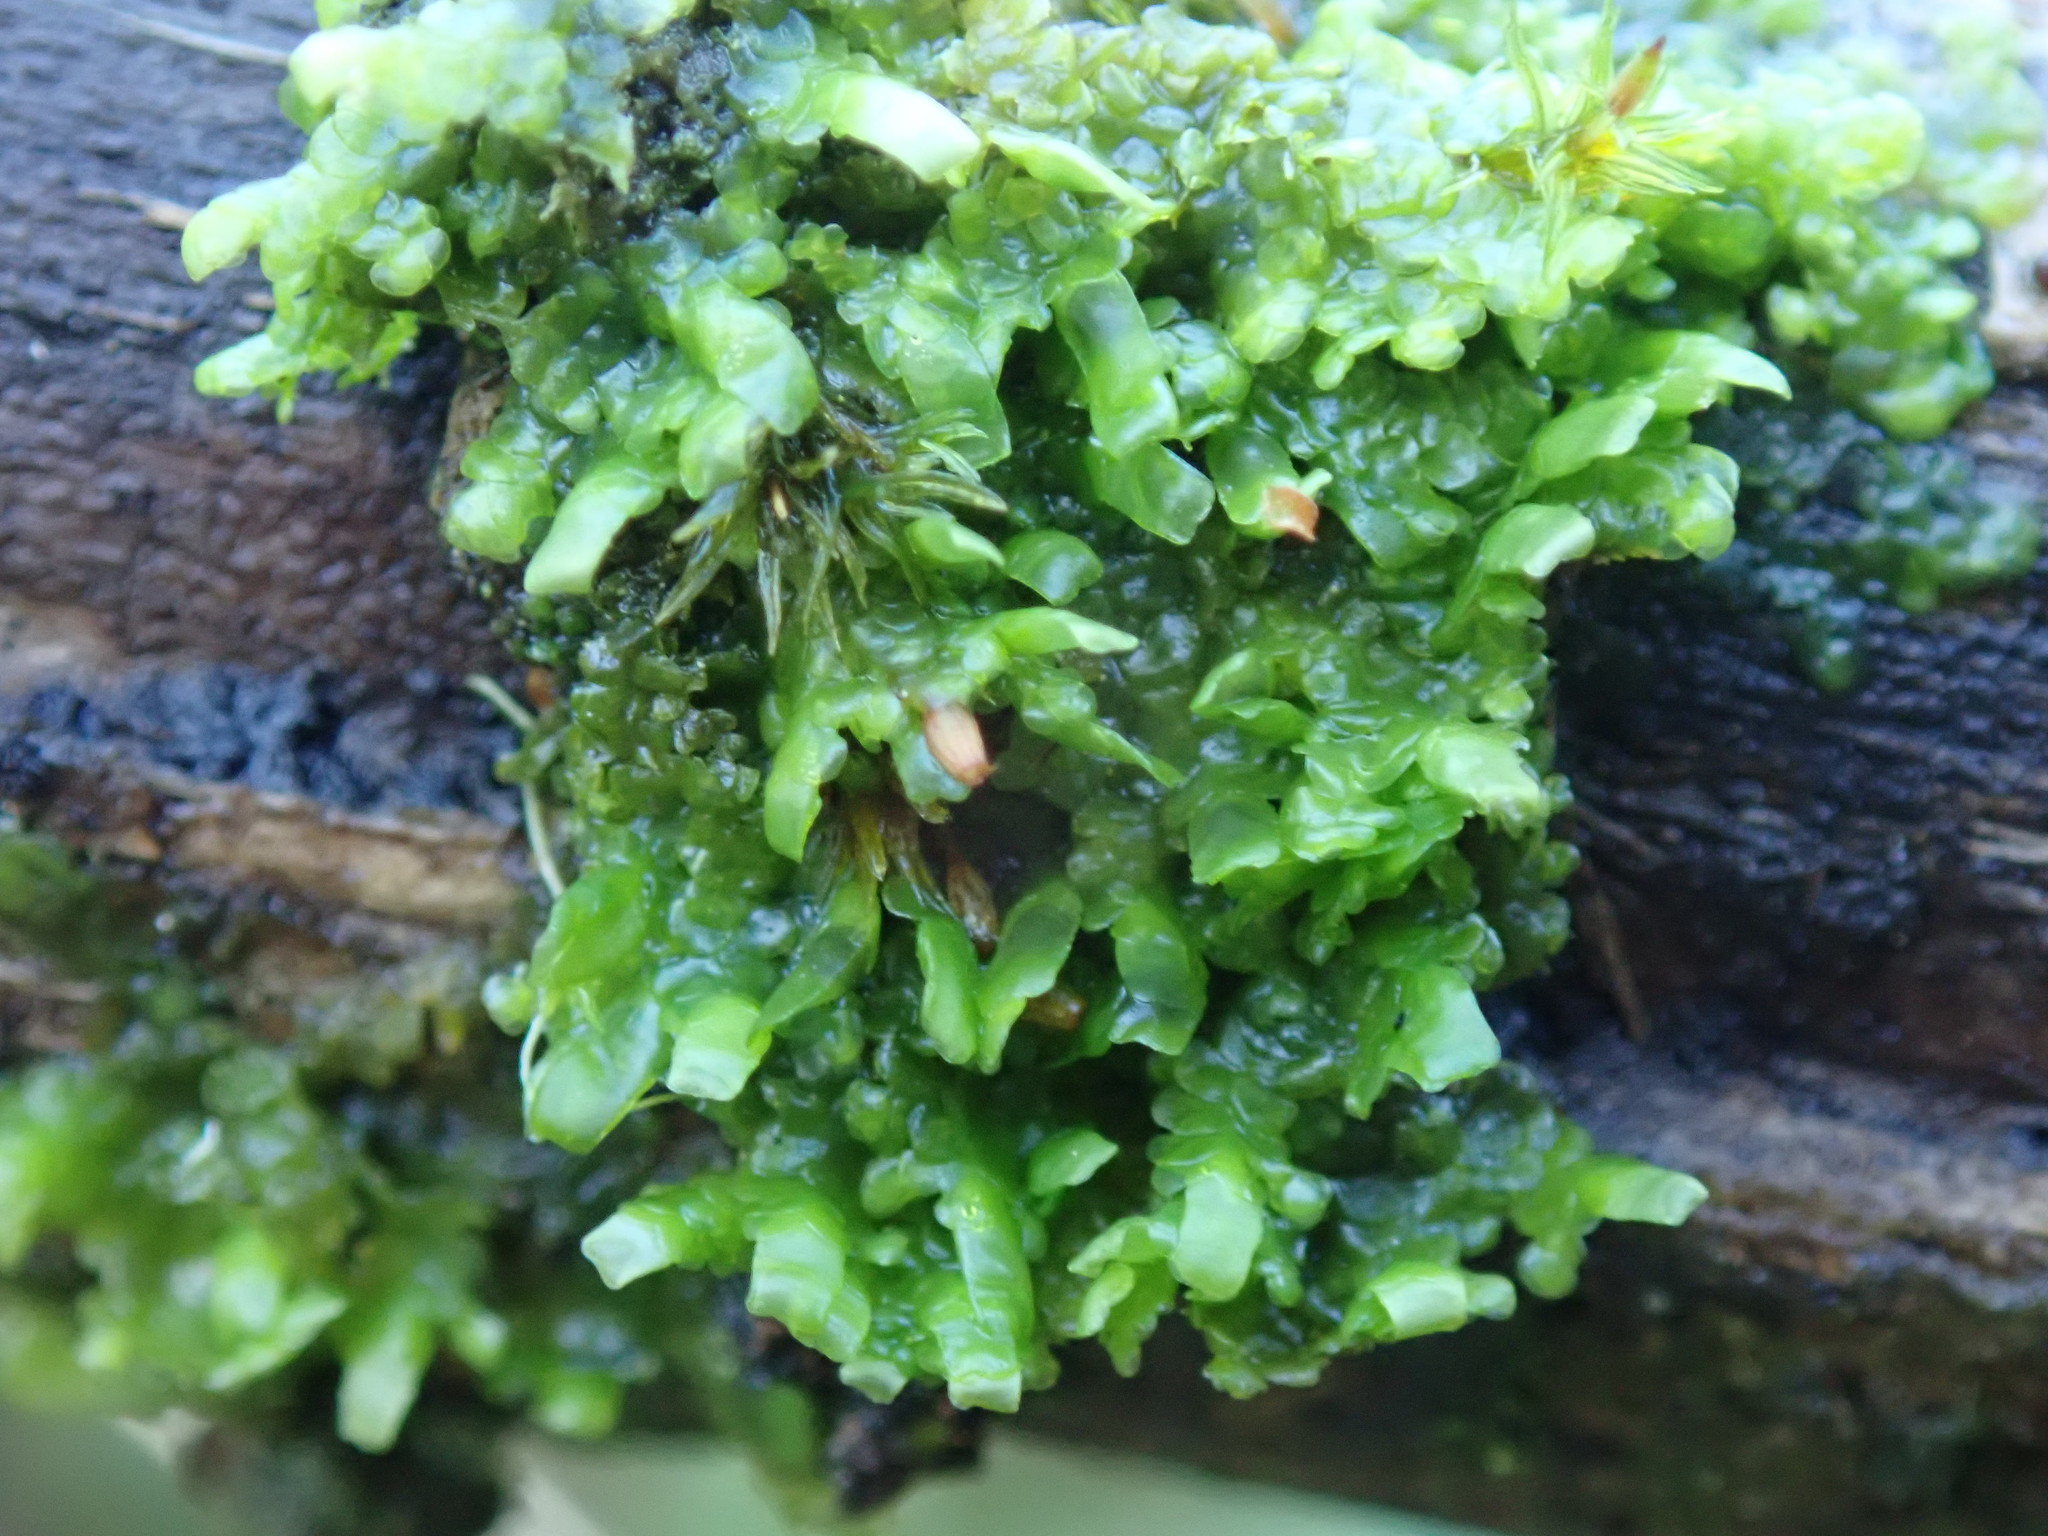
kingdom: Plantae
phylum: Marchantiophyta
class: Jungermanniopsida
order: Porellales
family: Radulaceae
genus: Radula
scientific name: Radula complanata
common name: Flat-leaved scalewort
